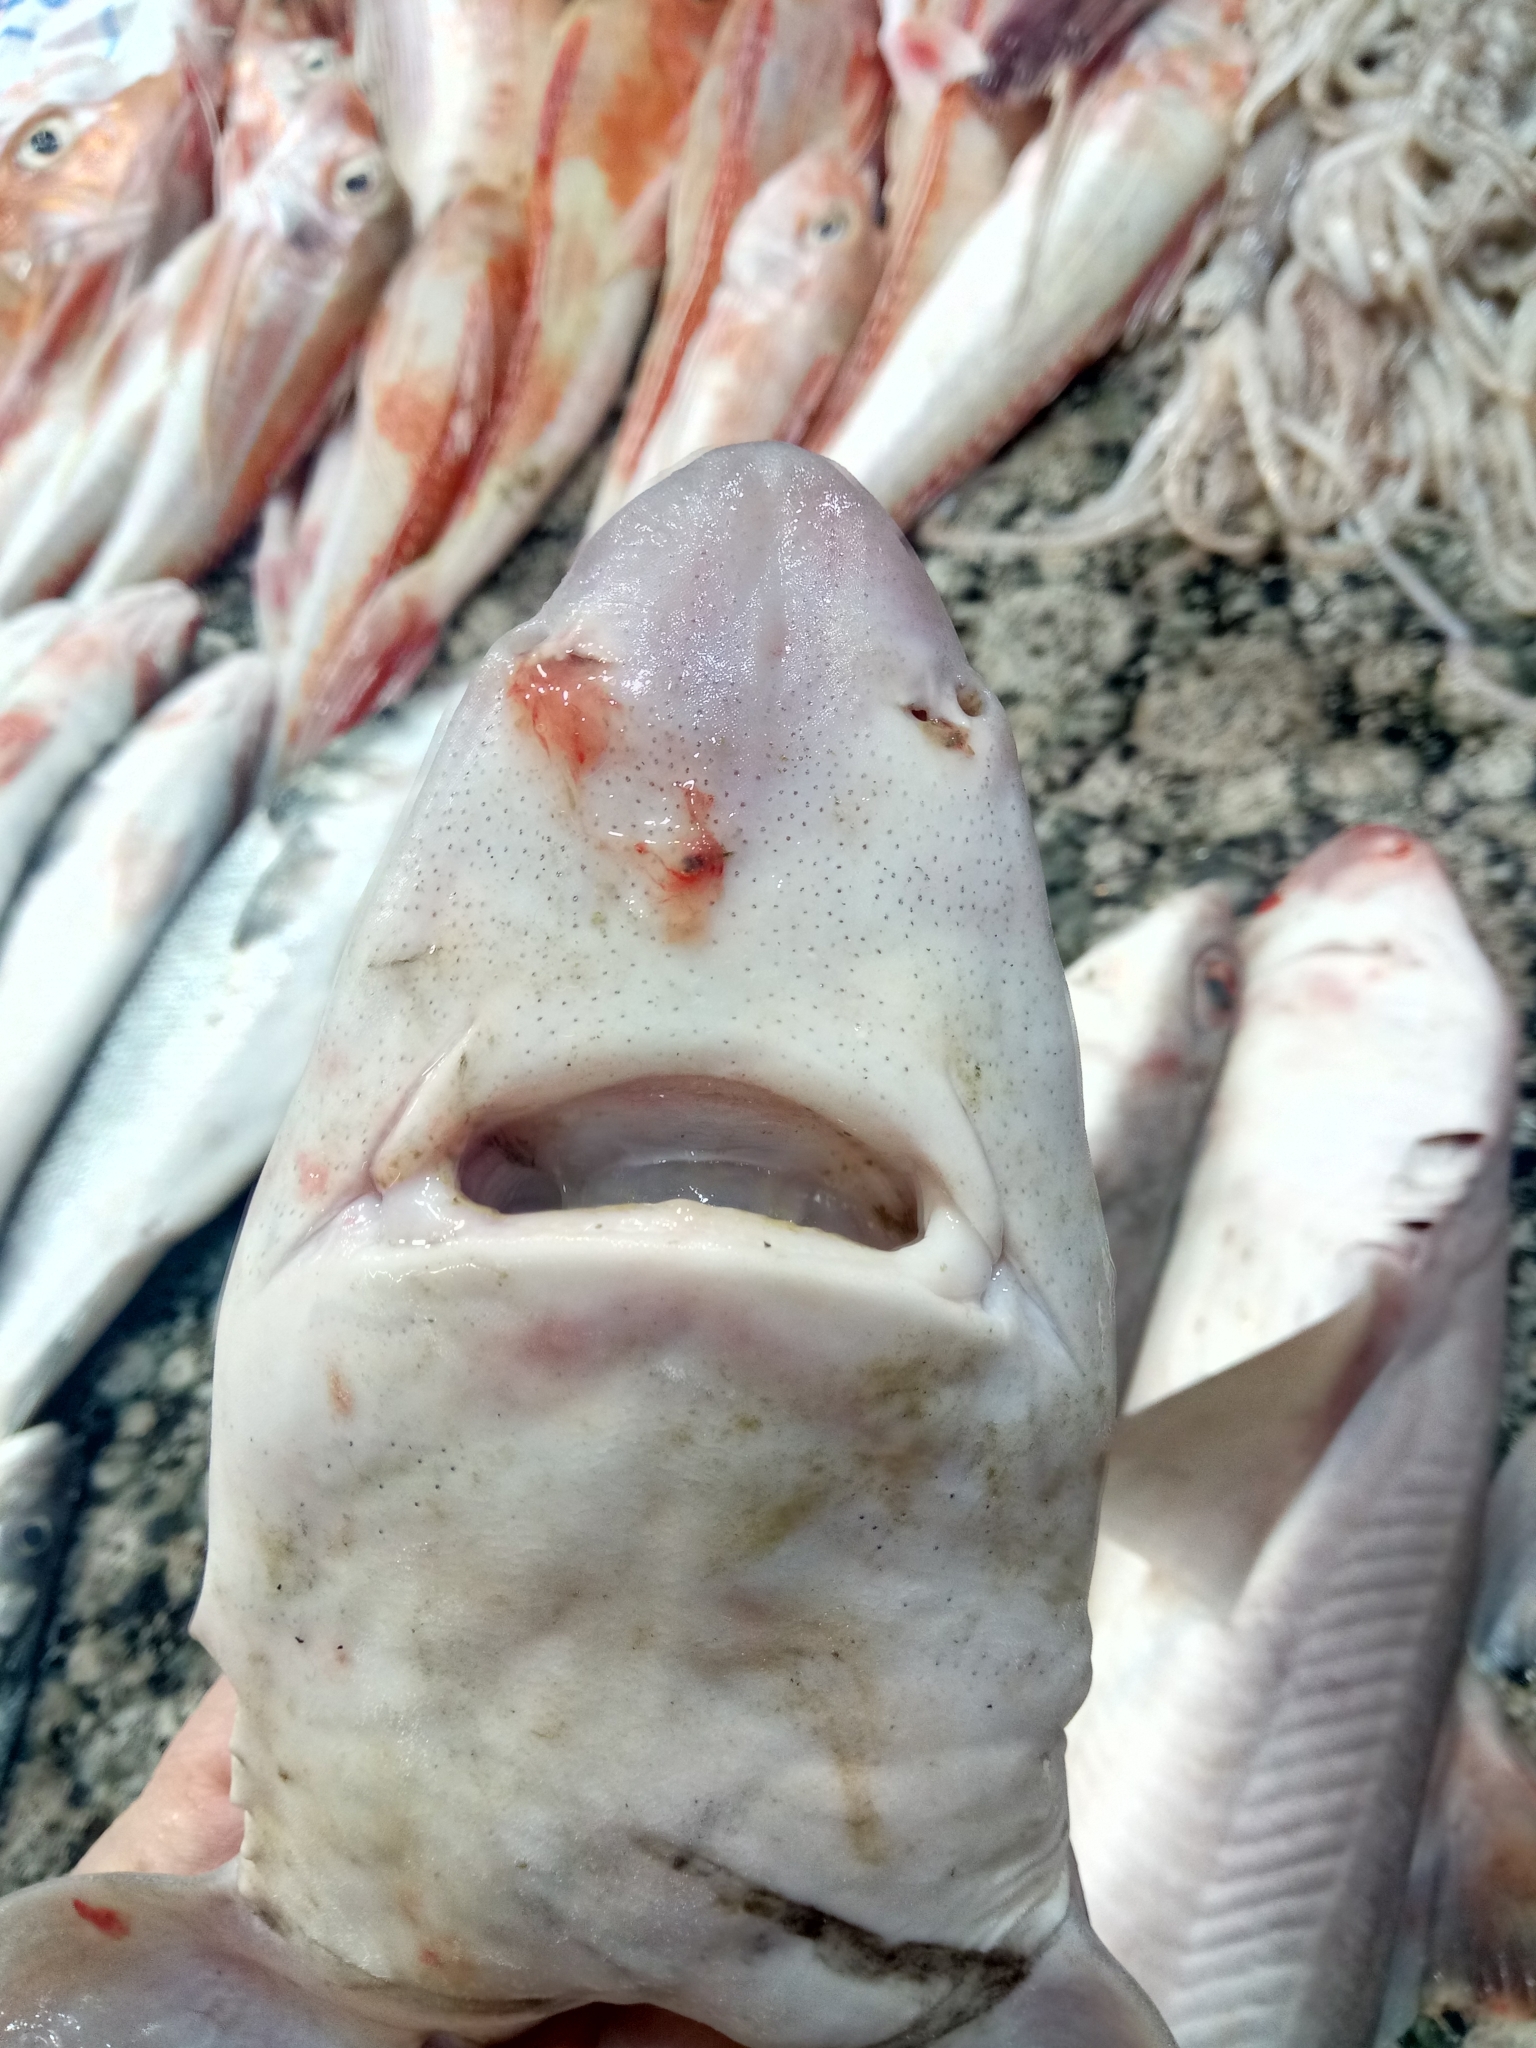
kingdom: Animalia
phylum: Chordata
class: Elasmobranchii
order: Squaliformes
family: Squalidae
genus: Squalus
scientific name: Squalus blainville
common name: Longnose spurdog
